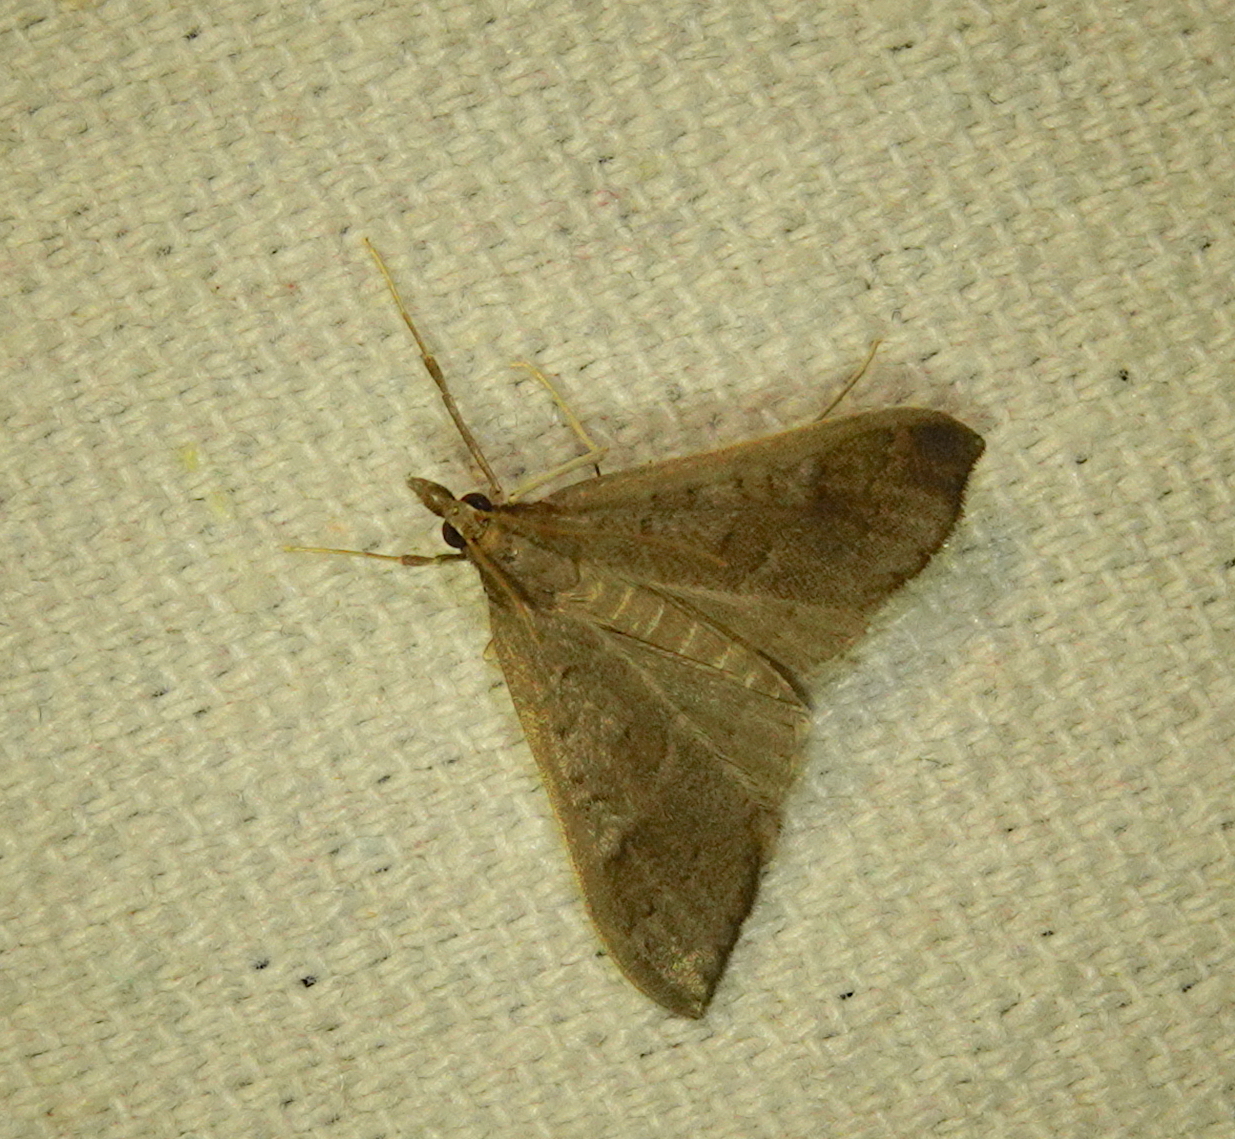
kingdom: Animalia
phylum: Arthropoda
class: Insecta
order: Lepidoptera
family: Crambidae
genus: Mecyna
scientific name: Mecyna asinalis
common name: Coastal pearl
